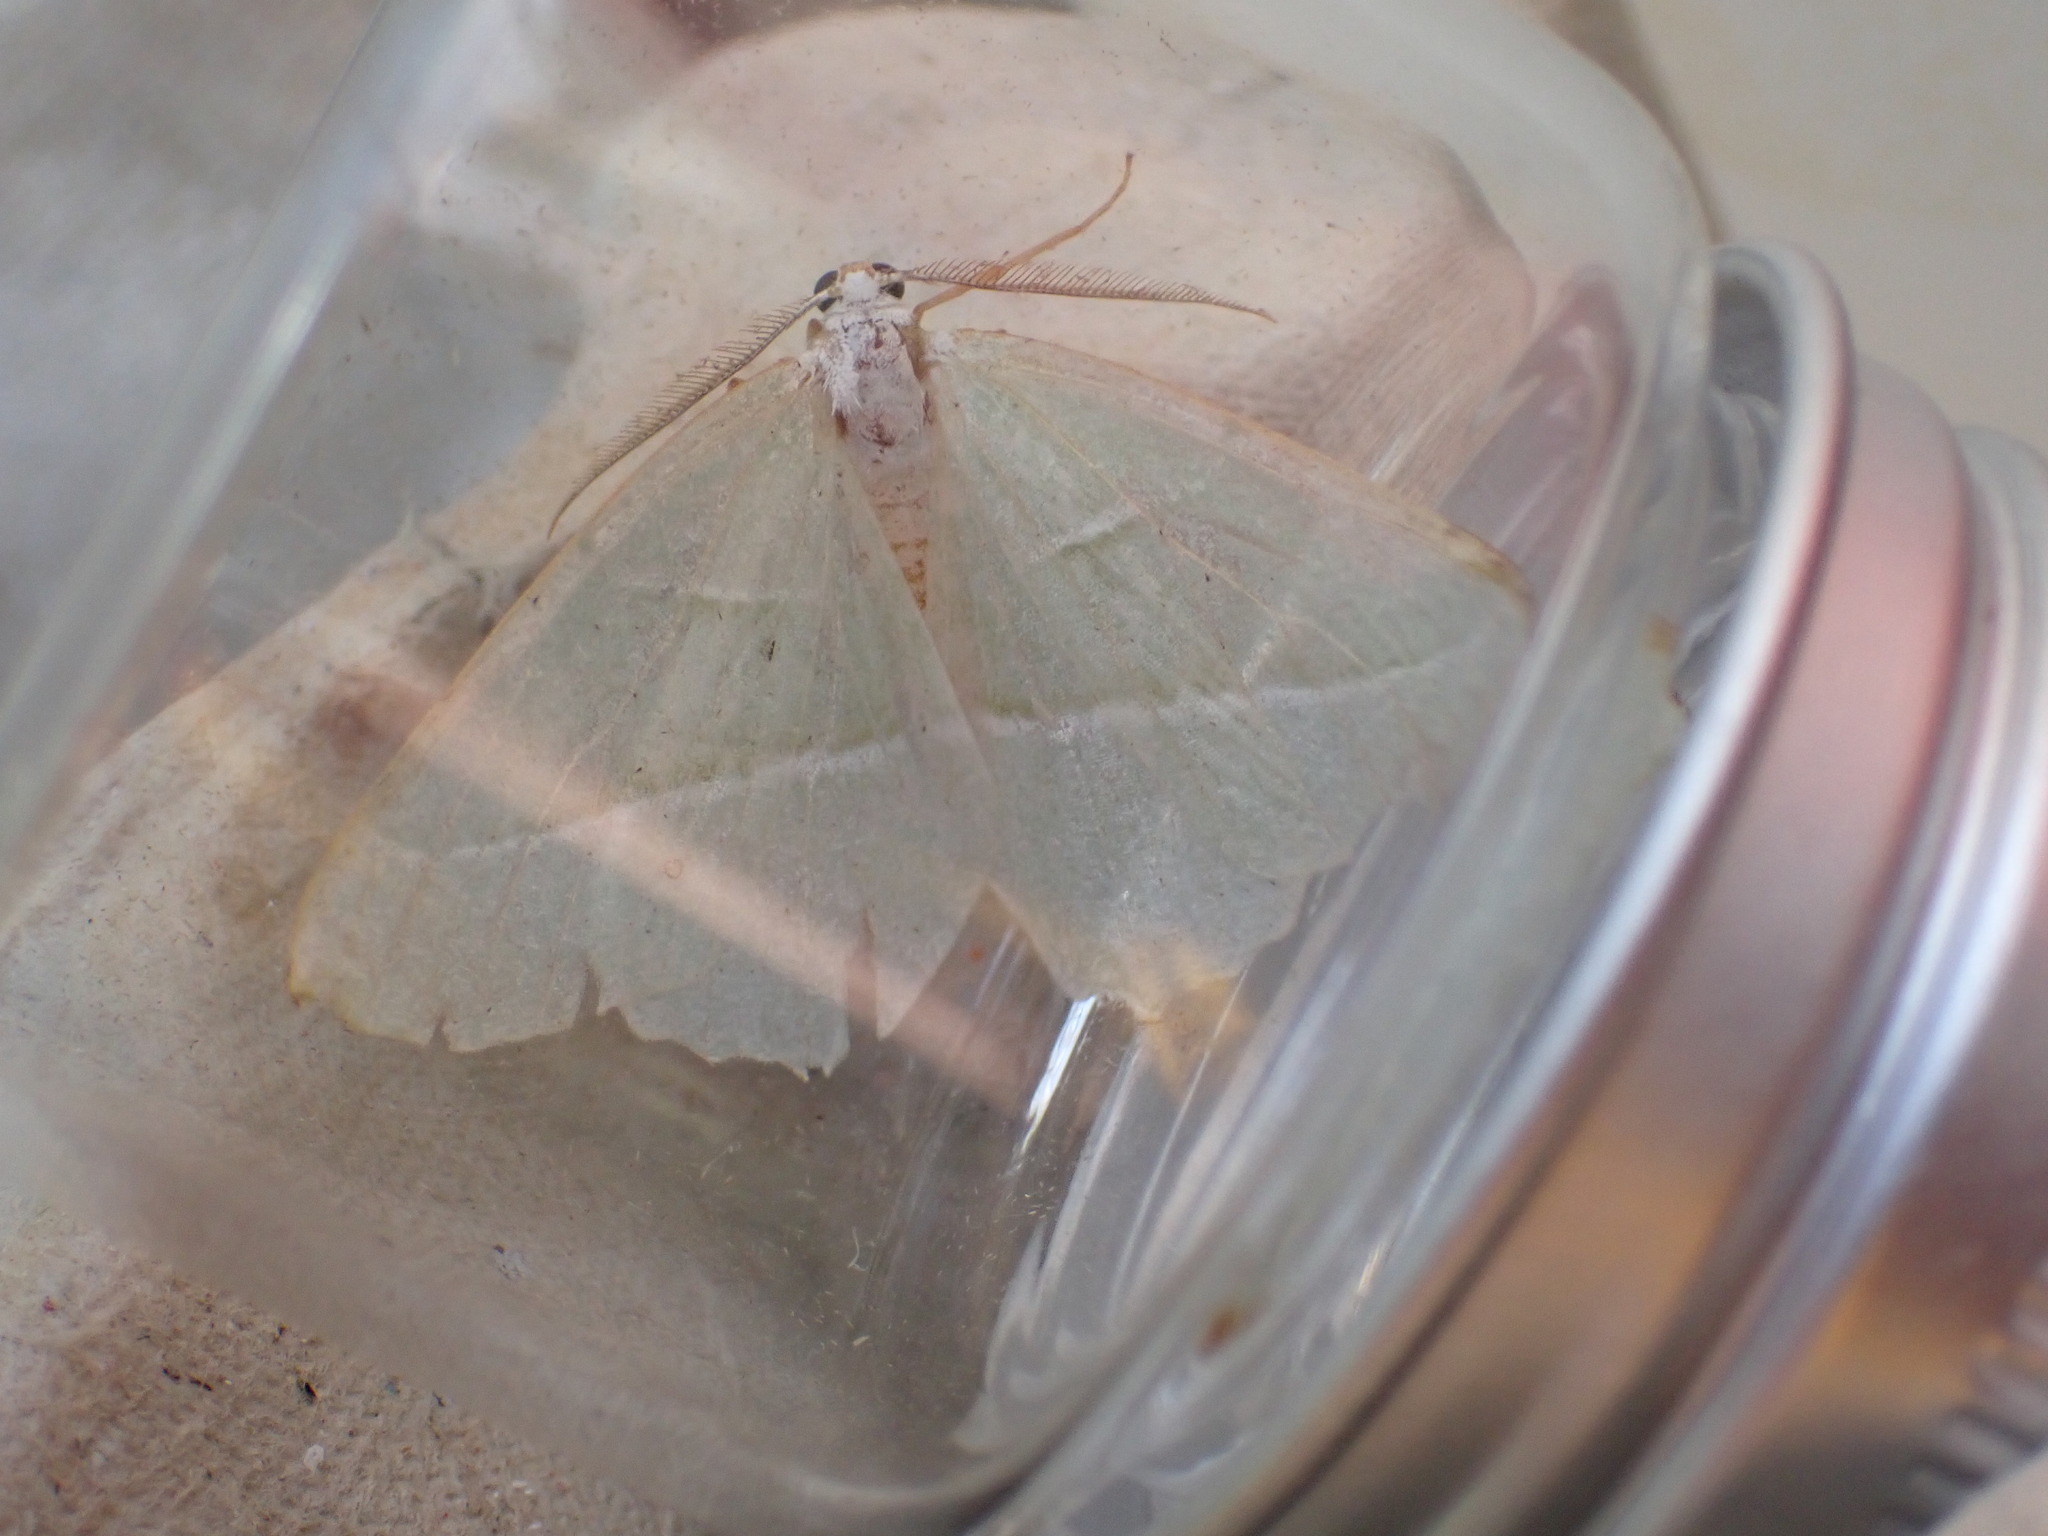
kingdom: Animalia
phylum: Arthropoda
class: Insecta
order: Lepidoptera
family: Geometridae
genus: Campaea
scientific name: Campaea margaritaria
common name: Light emerald
